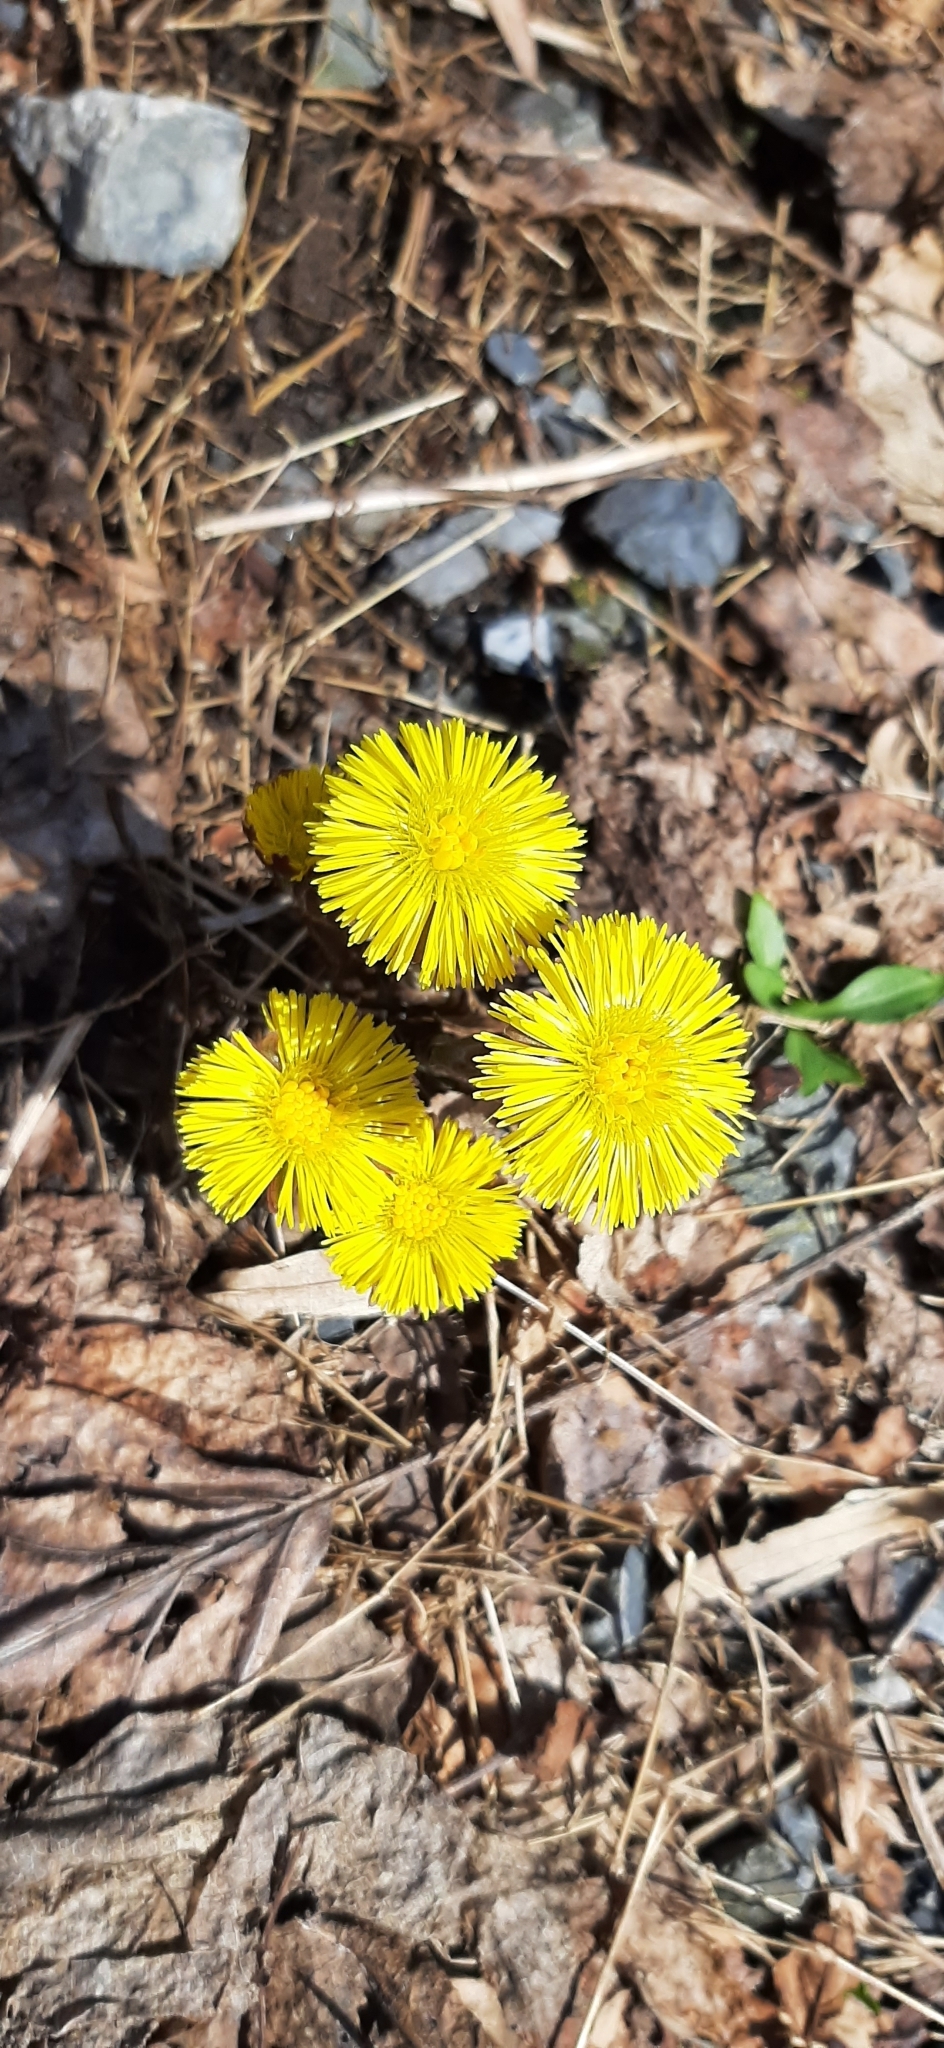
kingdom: Plantae
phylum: Tracheophyta
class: Magnoliopsida
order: Asterales
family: Asteraceae
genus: Tussilago
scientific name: Tussilago farfara
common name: Coltsfoot
